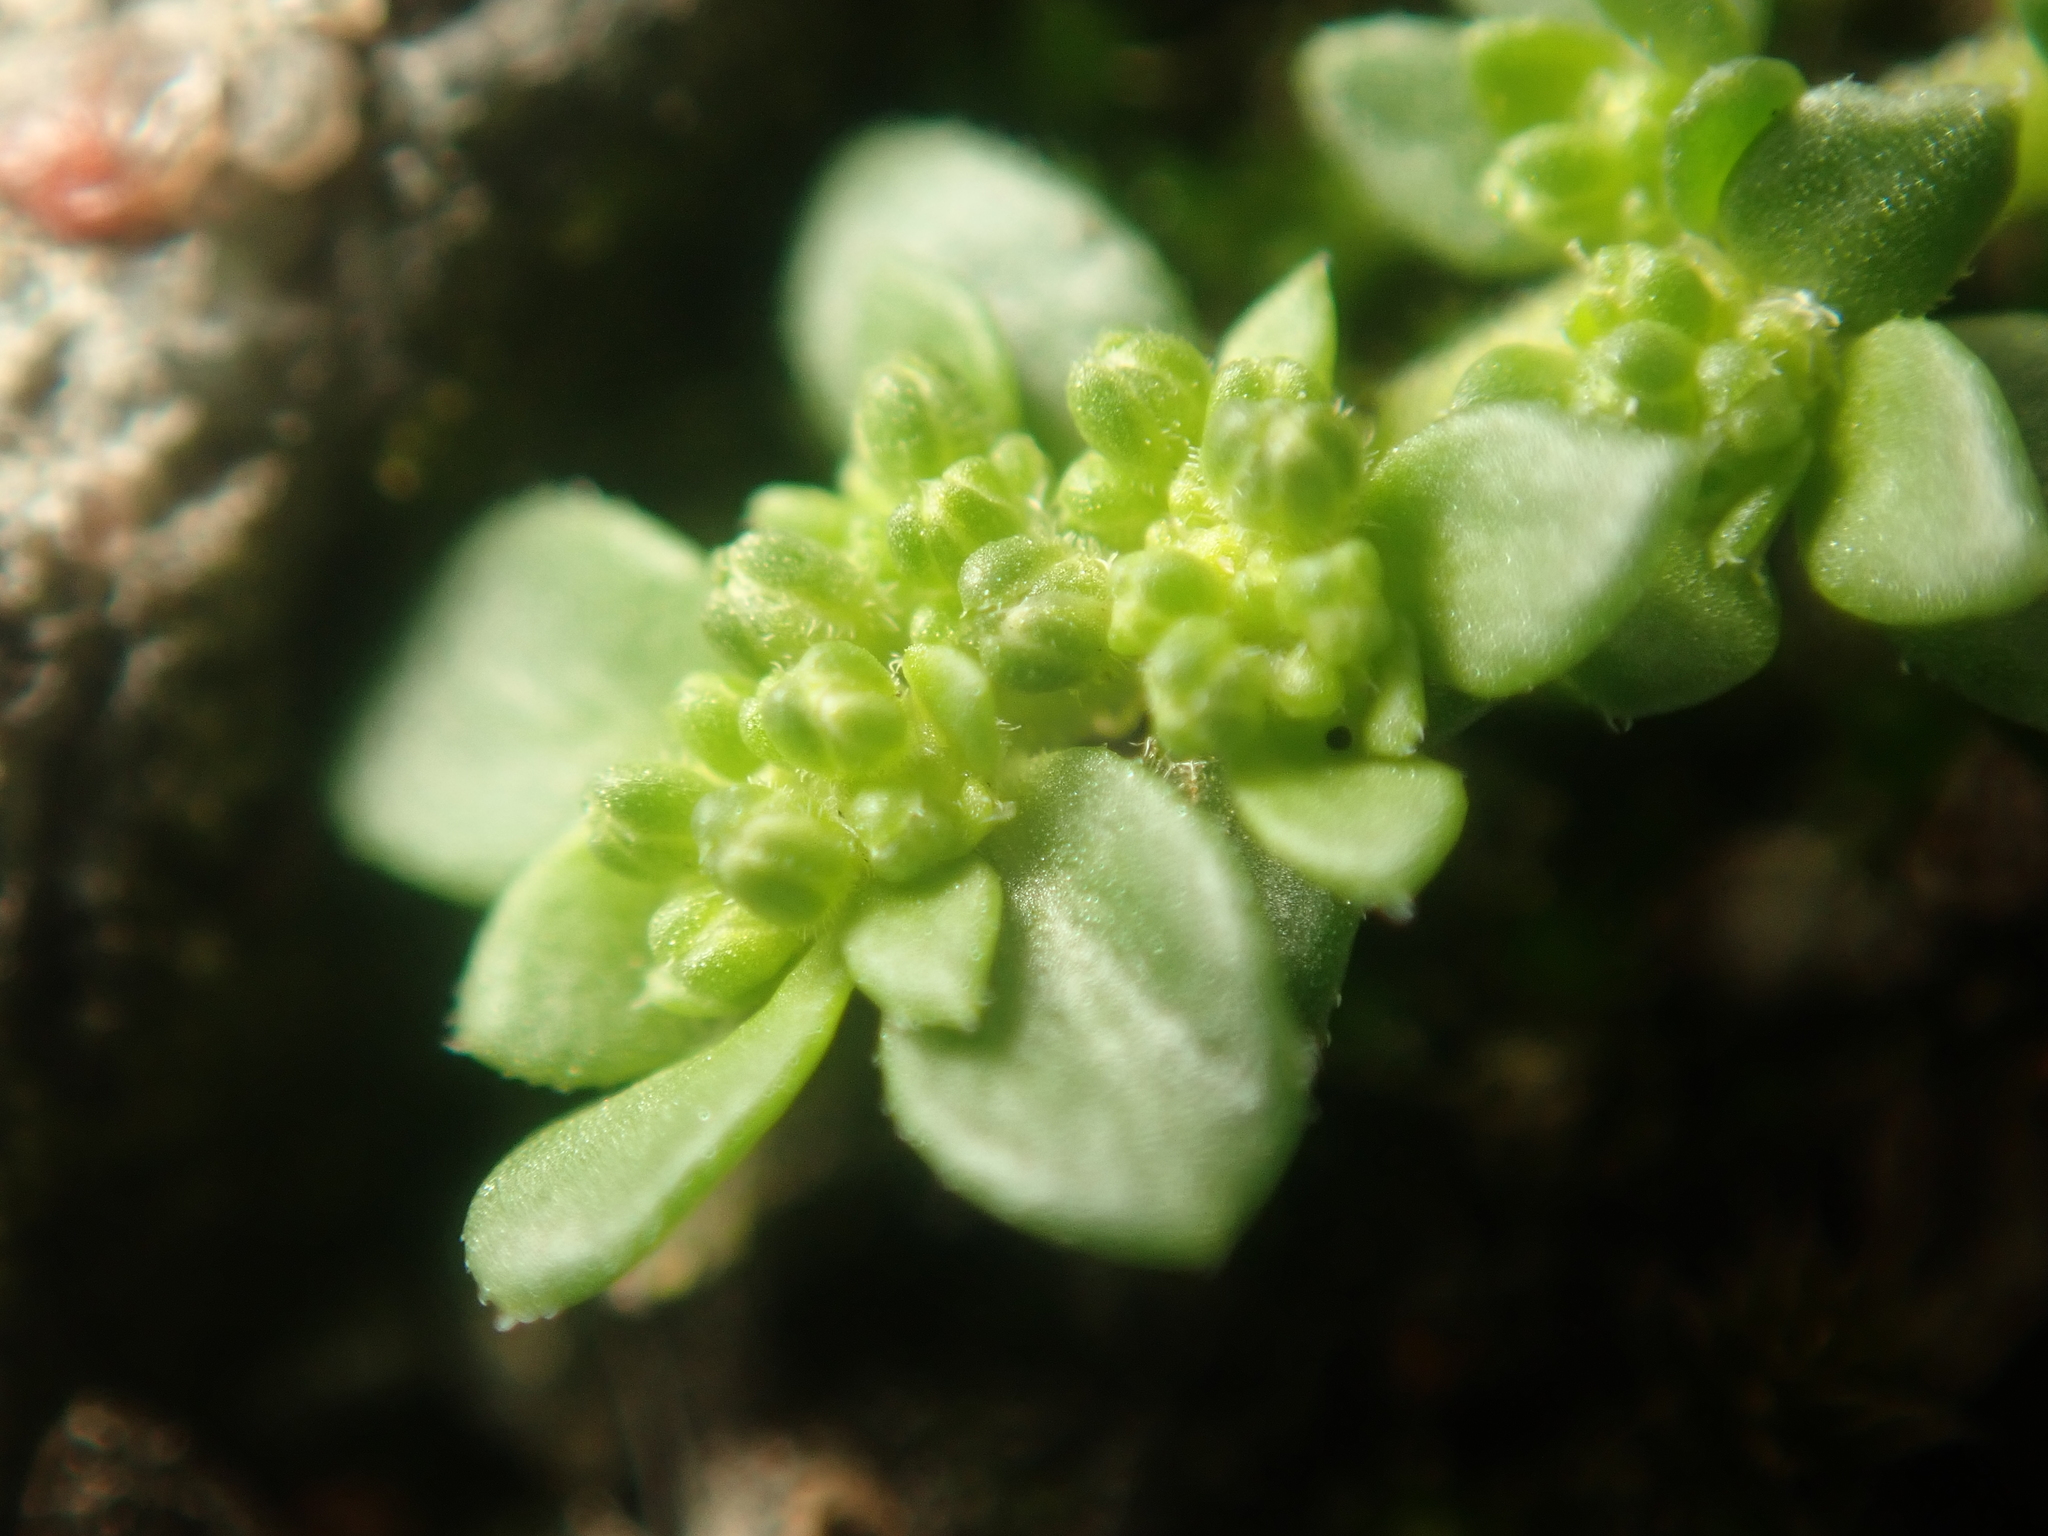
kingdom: Plantae
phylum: Tracheophyta
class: Magnoliopsida
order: Caryophyllales
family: Caryophyllaceae
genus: Herniaria
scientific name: Herniaria glabra
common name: Smooth rupturewort
